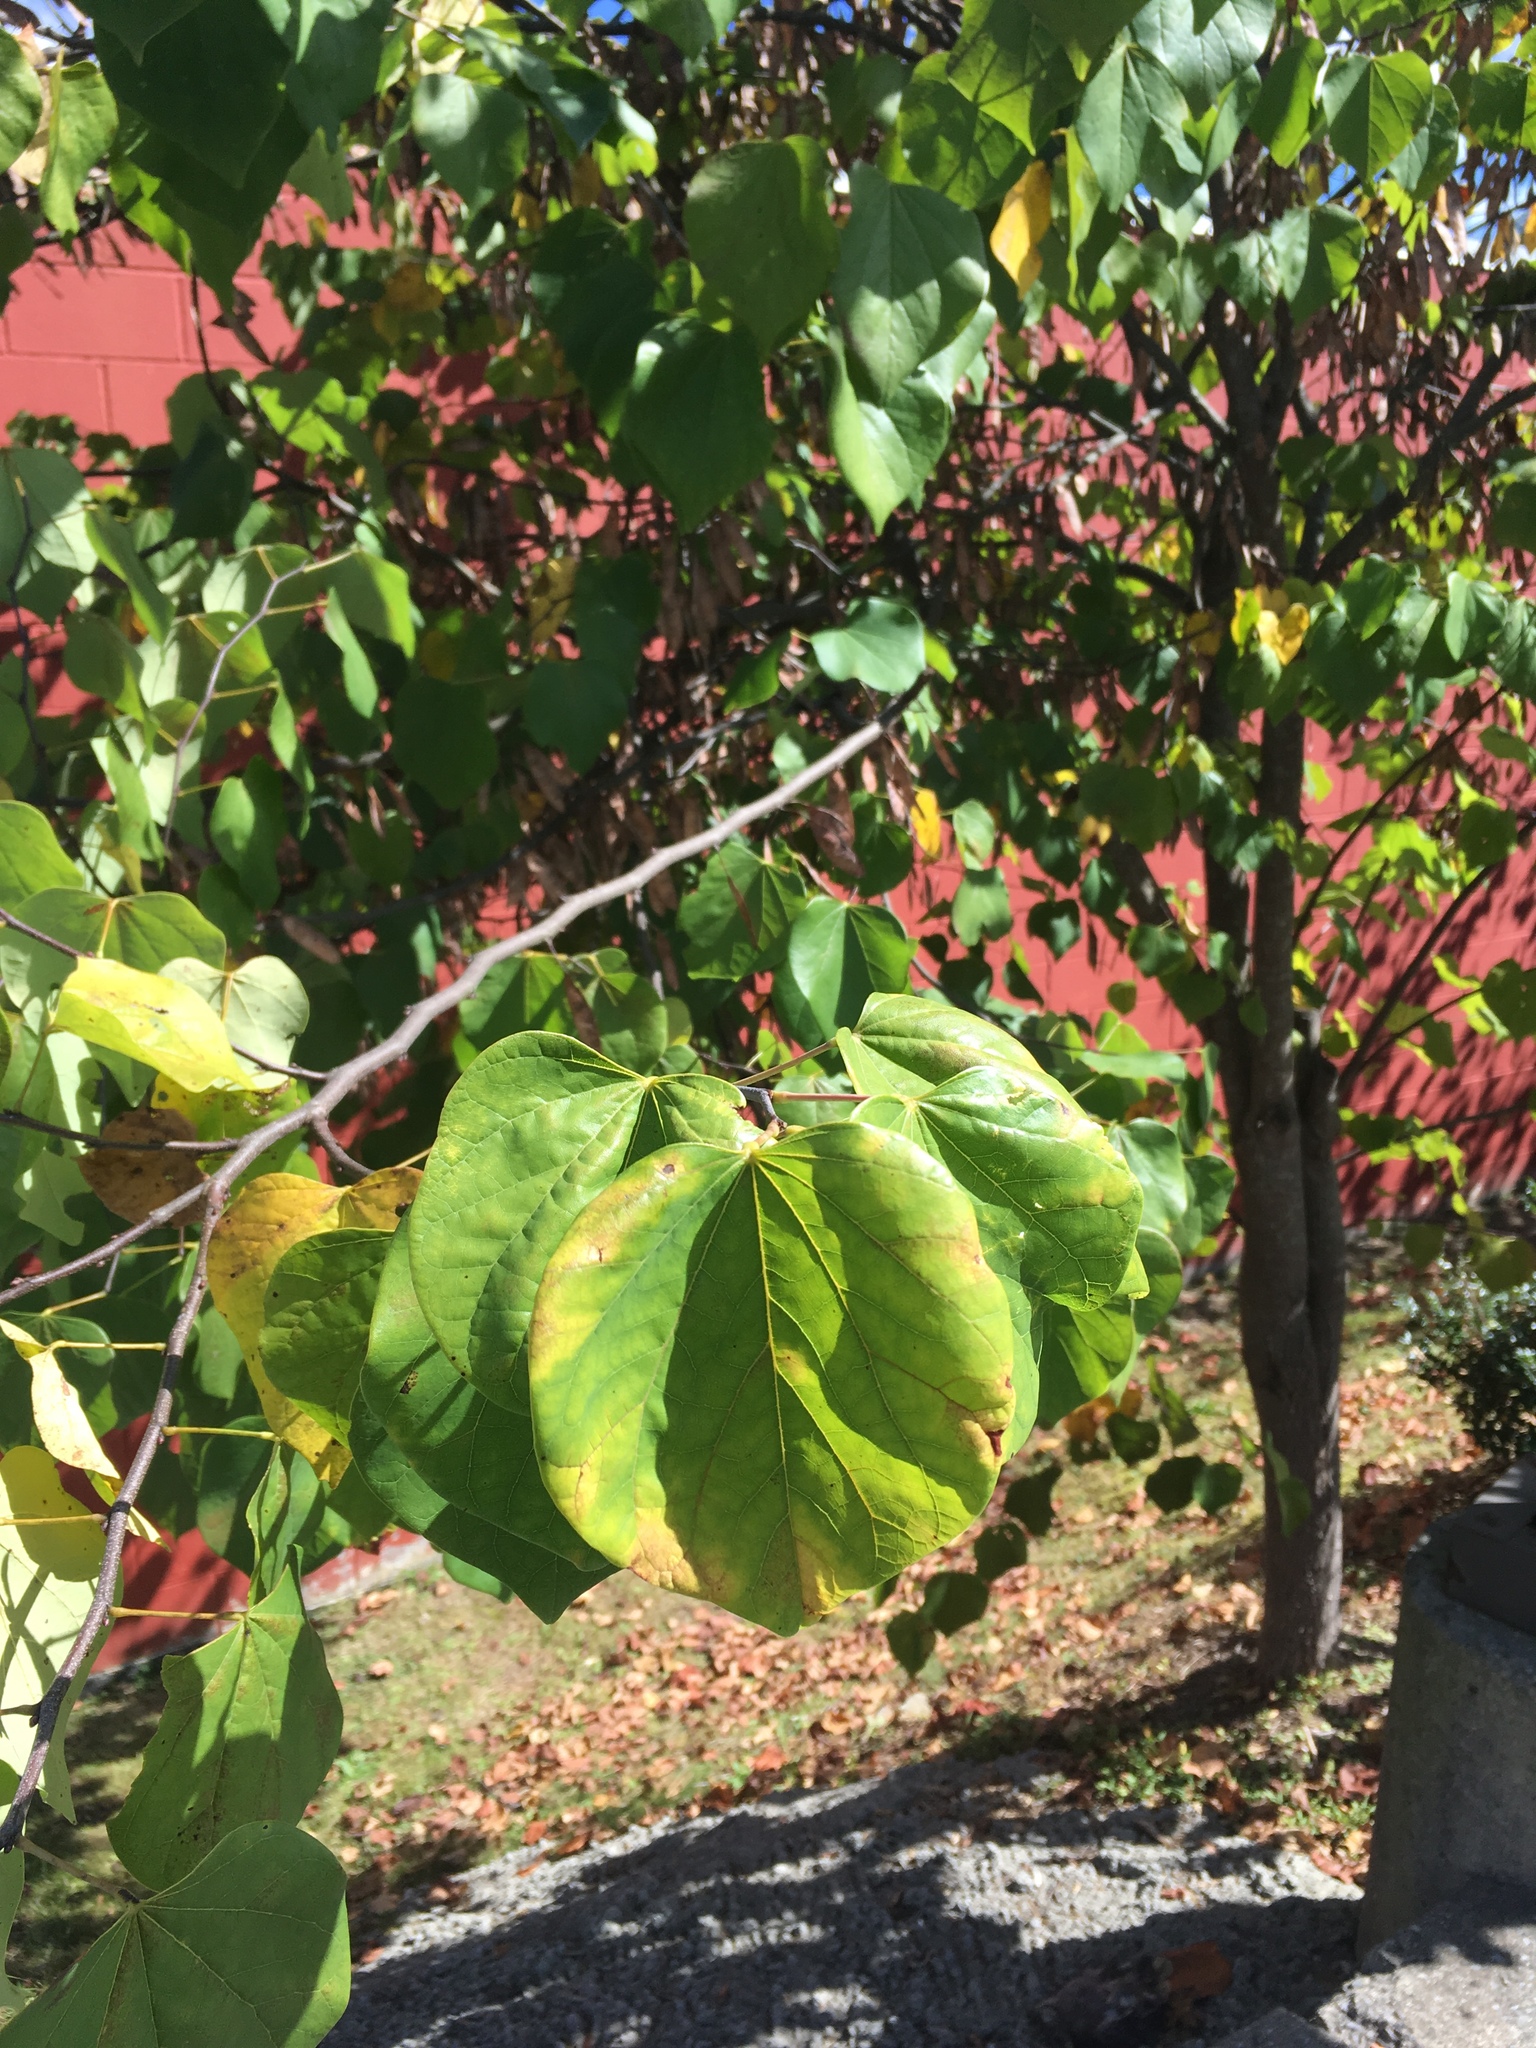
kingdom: Plantae
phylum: Tracheophyta
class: Magnoliopsida
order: Fabales
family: Fabaceae
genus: Cercis
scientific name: Cercis canadensis
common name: Eastern redbud
